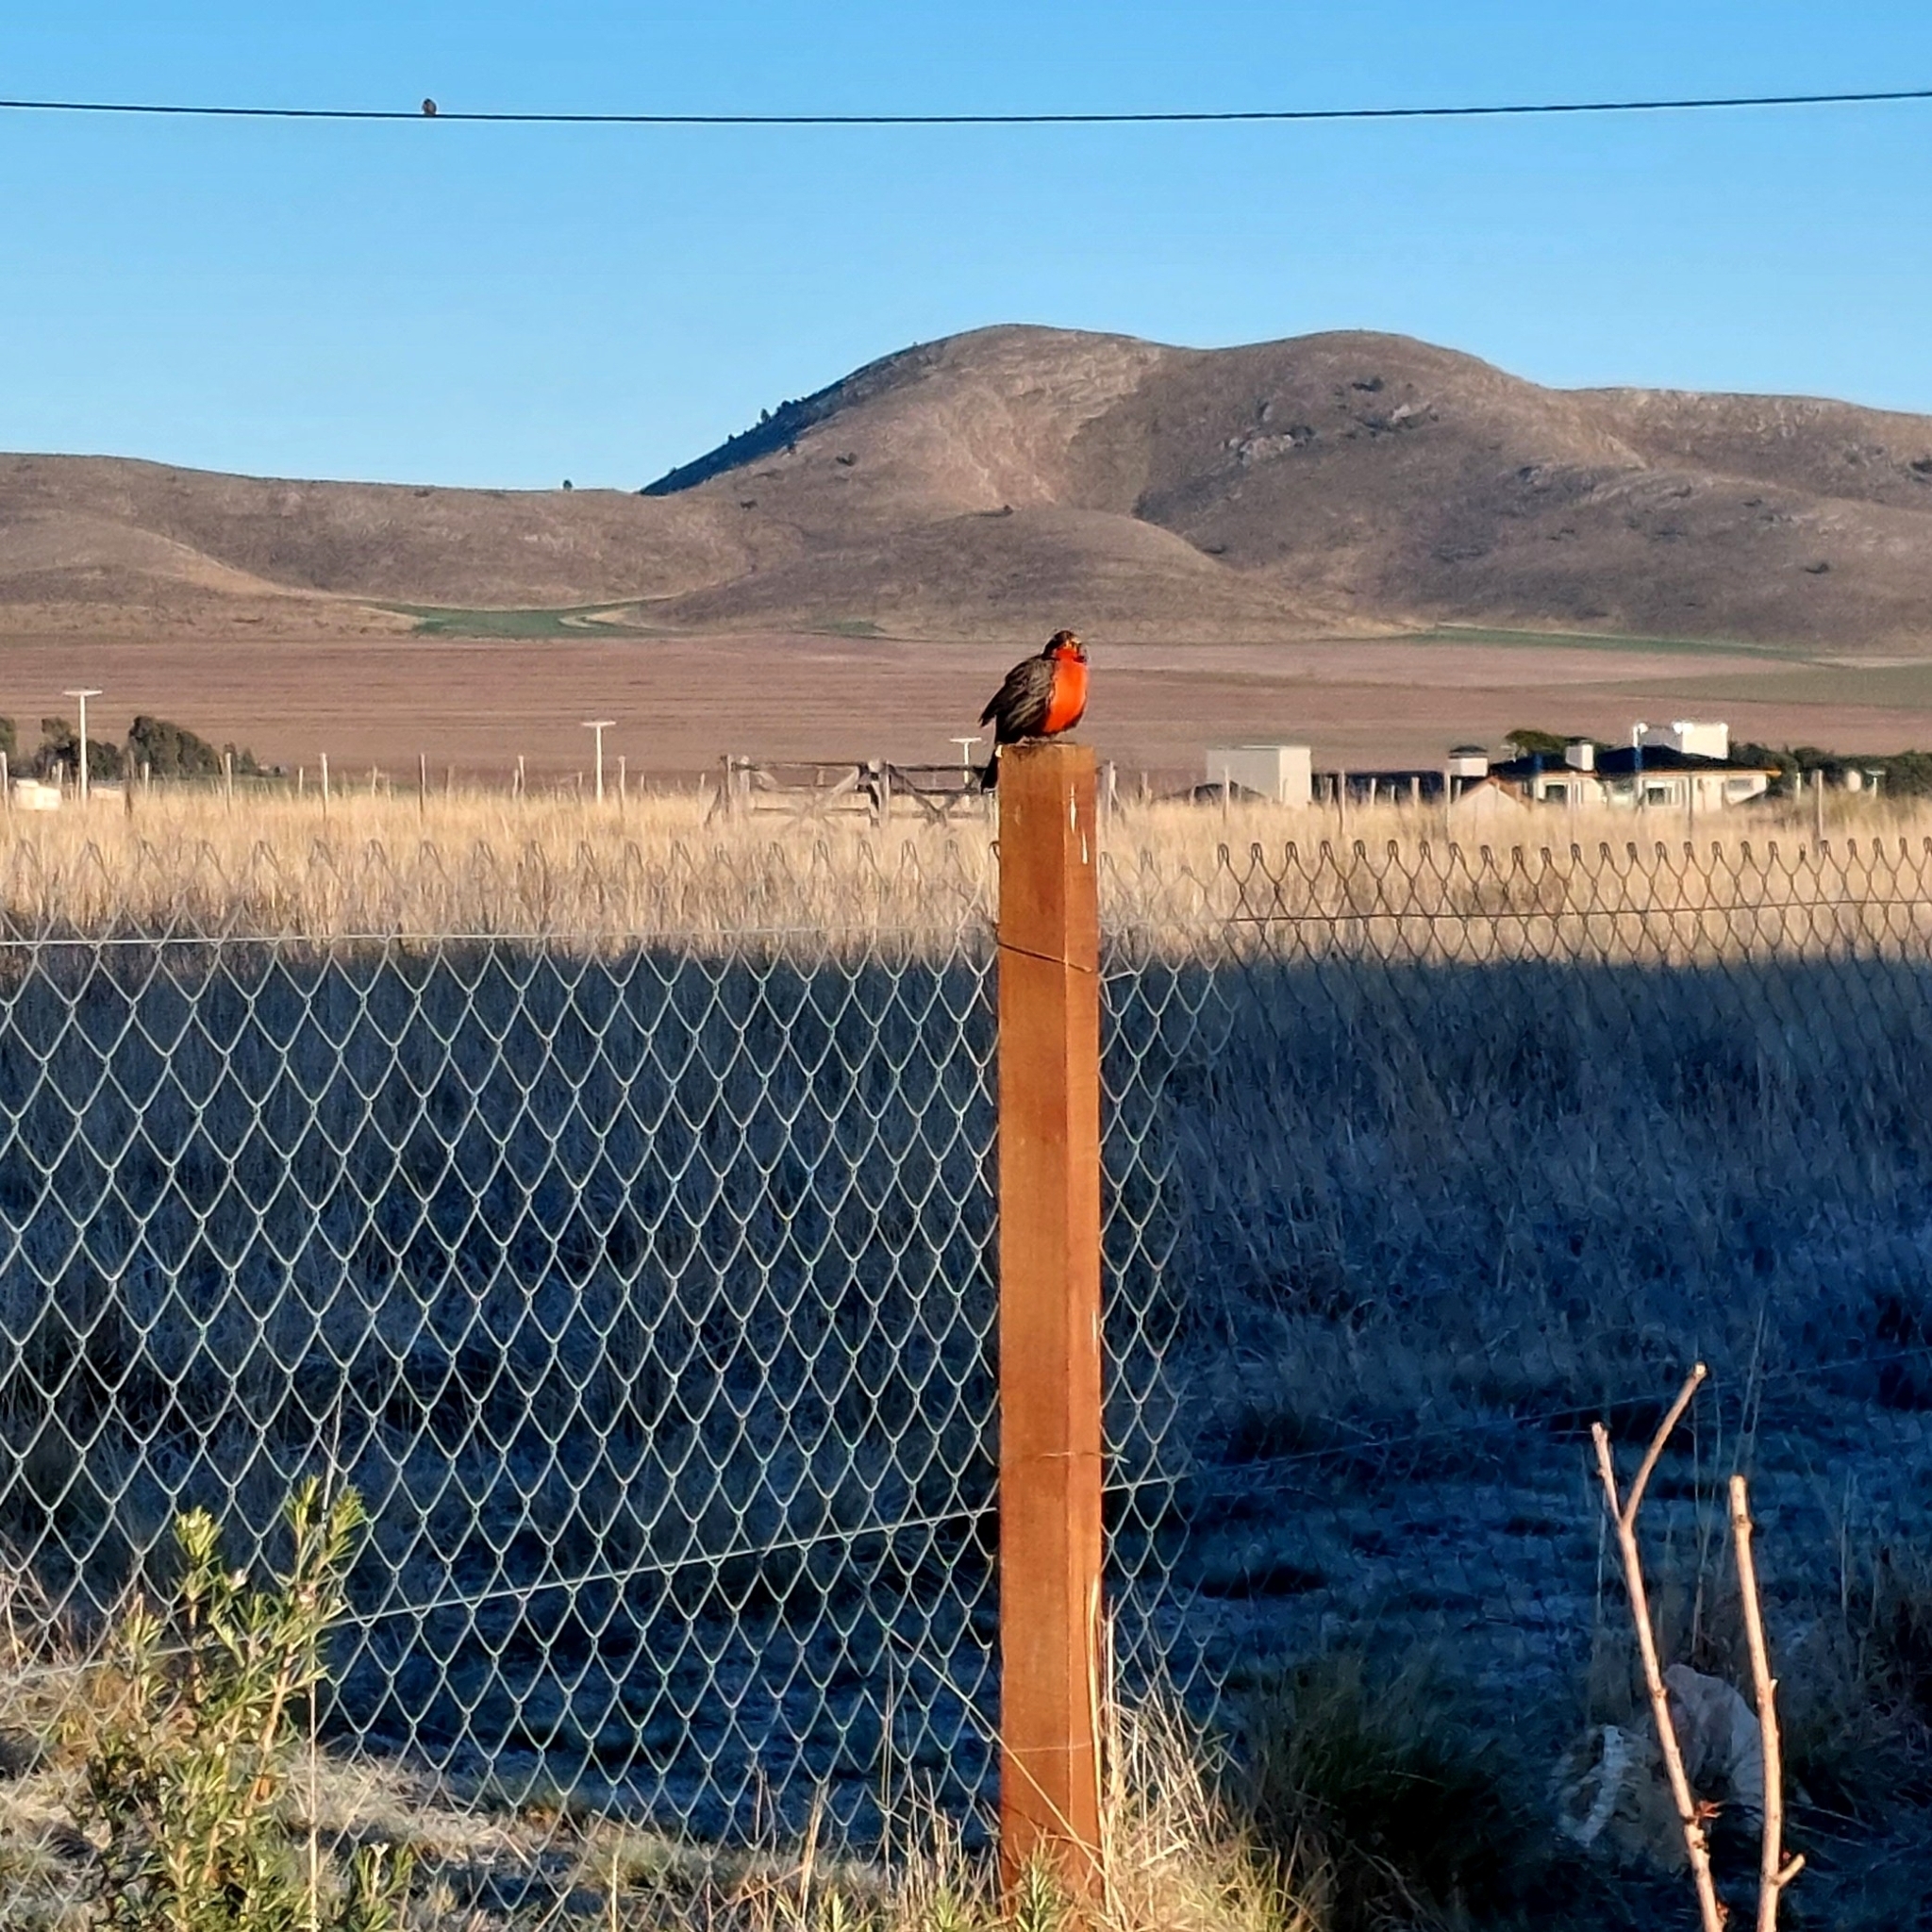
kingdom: Animalia
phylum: Chordata
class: Aves
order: Passeriformes
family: Icteridae
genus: Sturnella
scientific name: Sturnella loyca
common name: Long-tailed meadowlark
